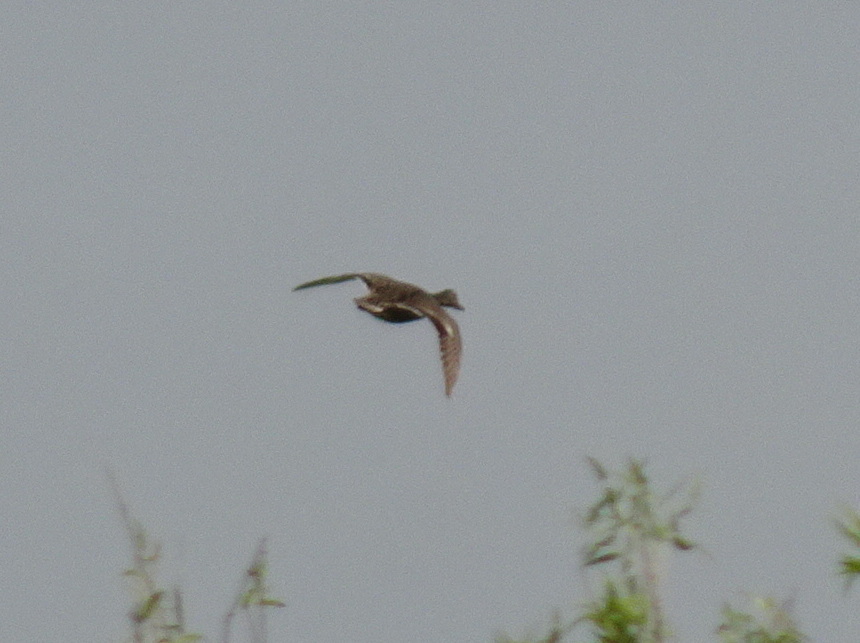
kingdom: Animalia
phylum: Chordata
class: Aves
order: Anseriformes
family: Anatidae
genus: Anas
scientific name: Anas platyrhynchos
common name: Mallard
